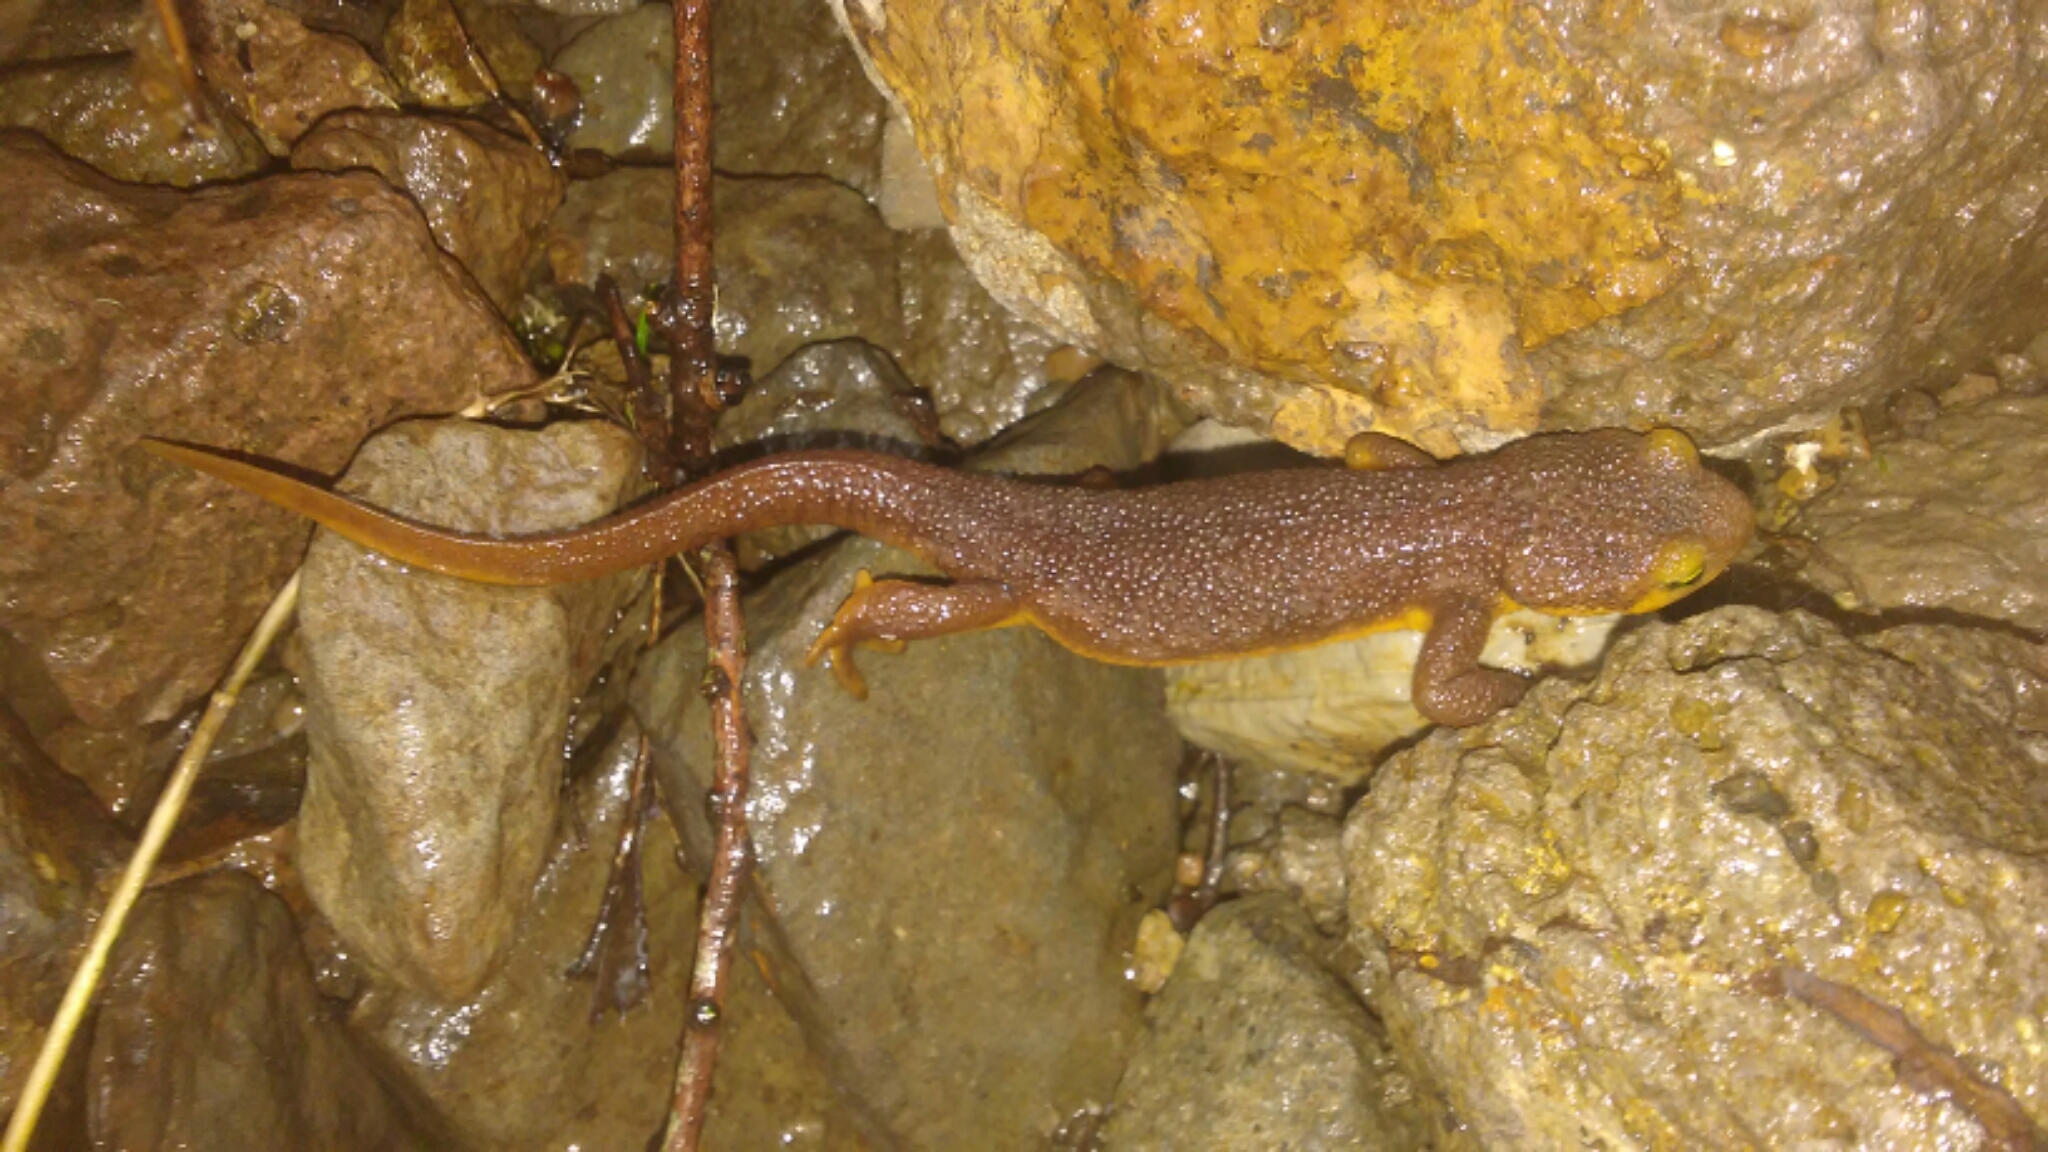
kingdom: Animalia
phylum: Chordata
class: Amphibia
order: Caudata
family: Salamandridae
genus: Taricha
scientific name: Taricha torosa
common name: California newt
